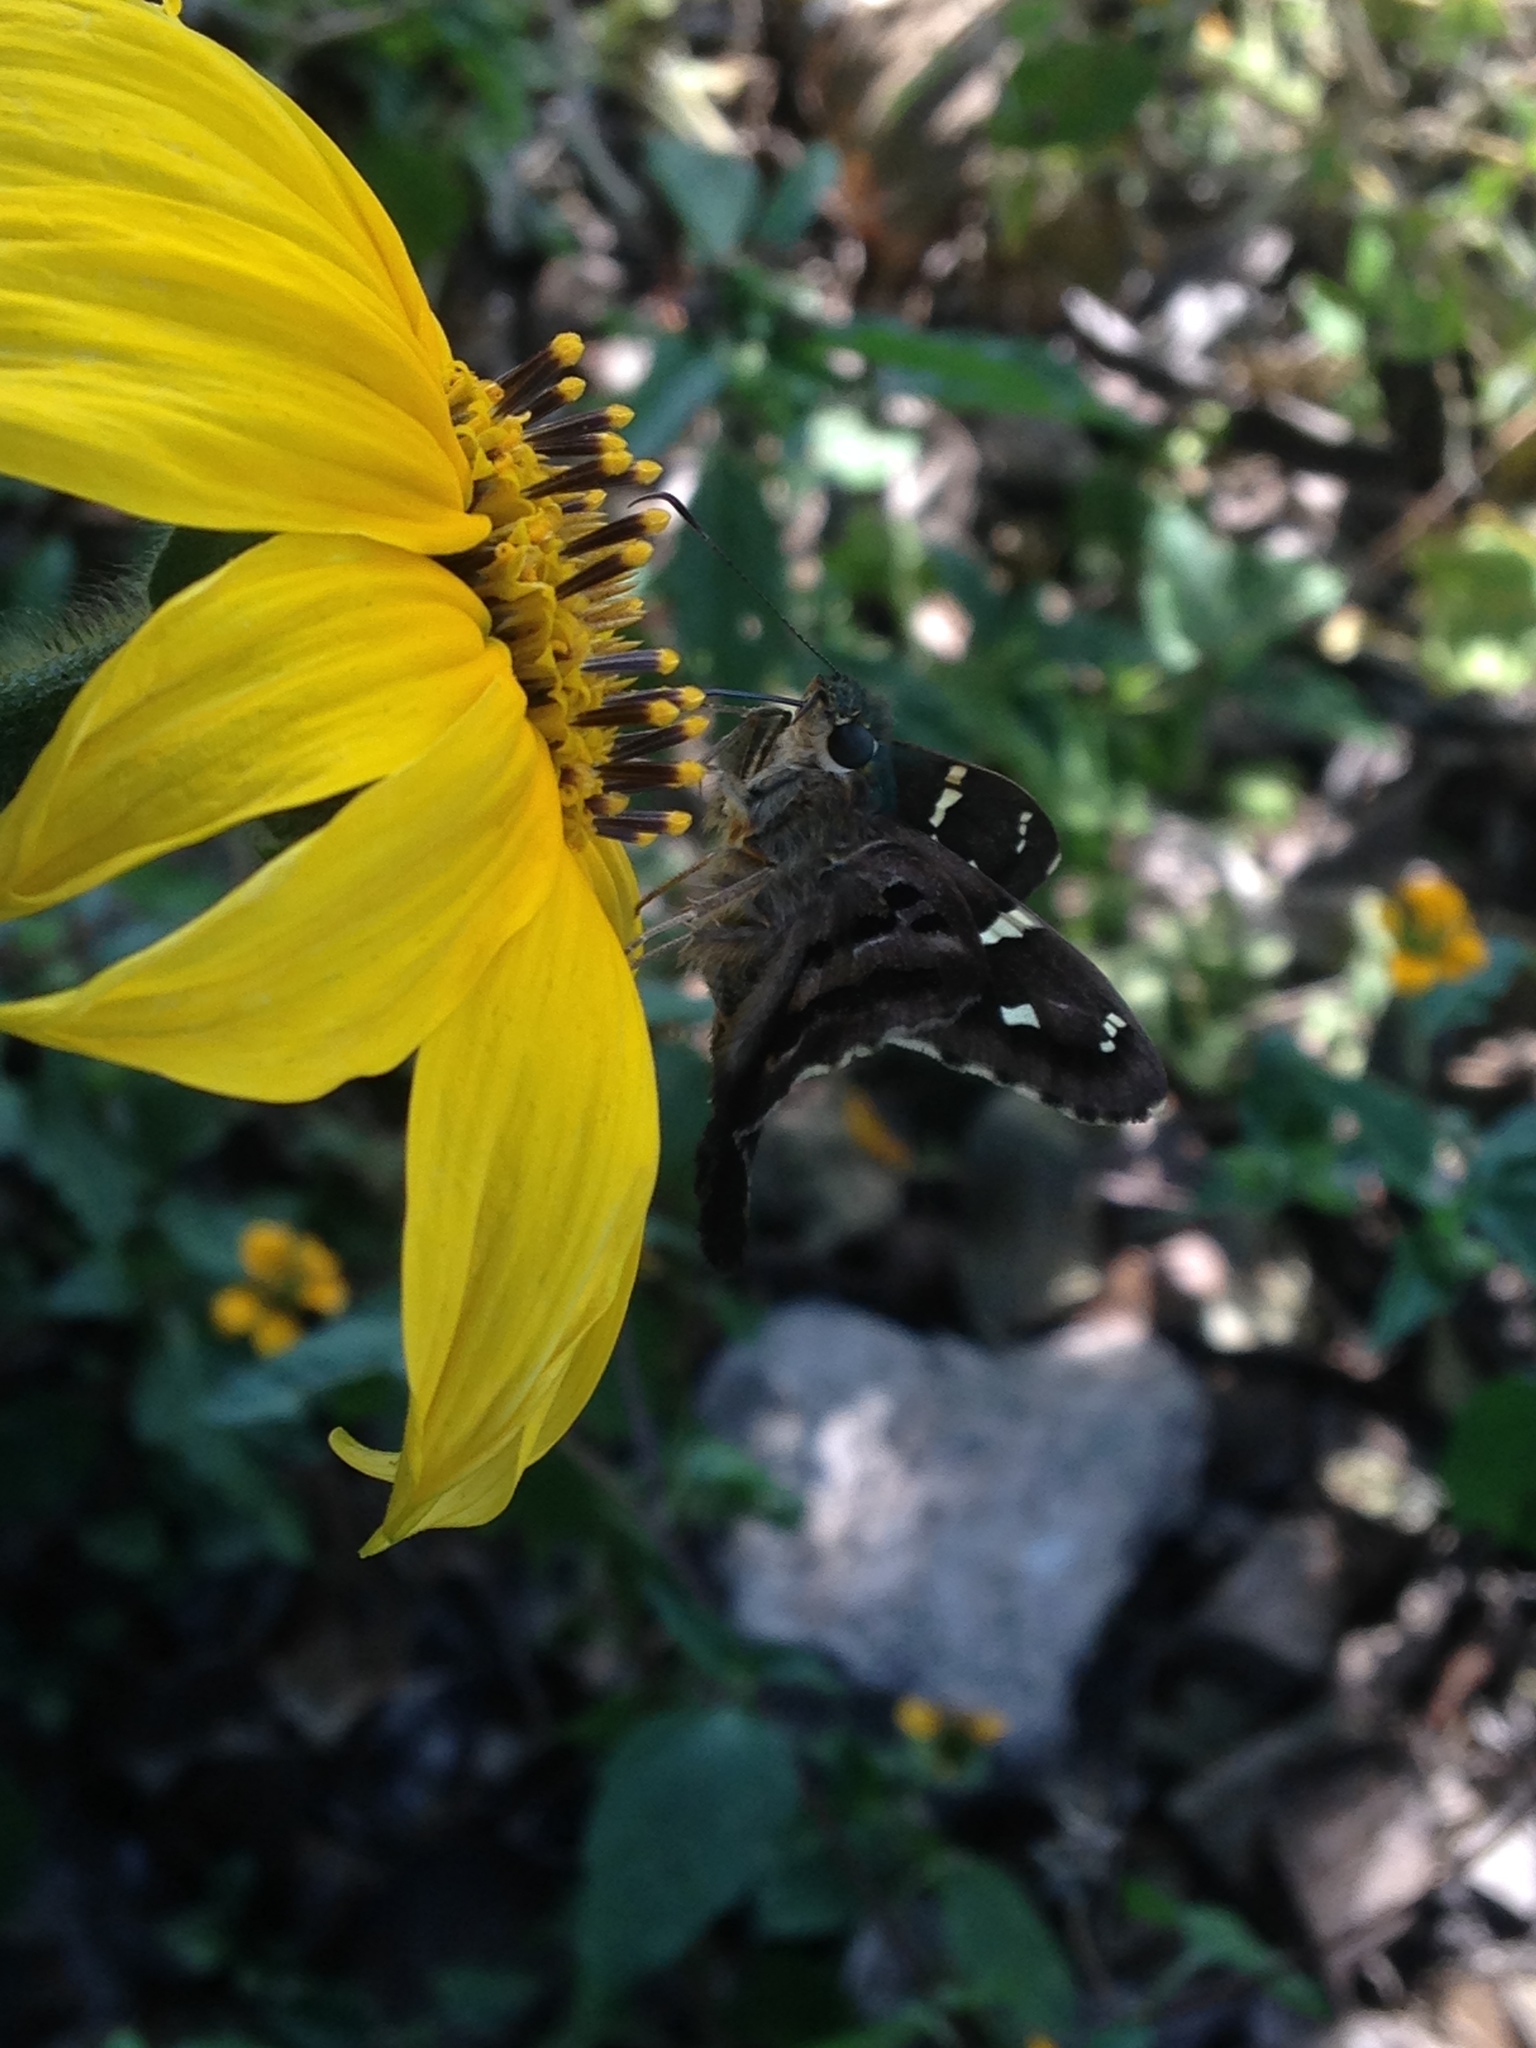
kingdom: Animalia
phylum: Arthropoda
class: Insecta
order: Lepidoptera
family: Hesperiidae
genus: Urbanus
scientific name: Urbanus esmeraldus
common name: Esmeralda longtail
